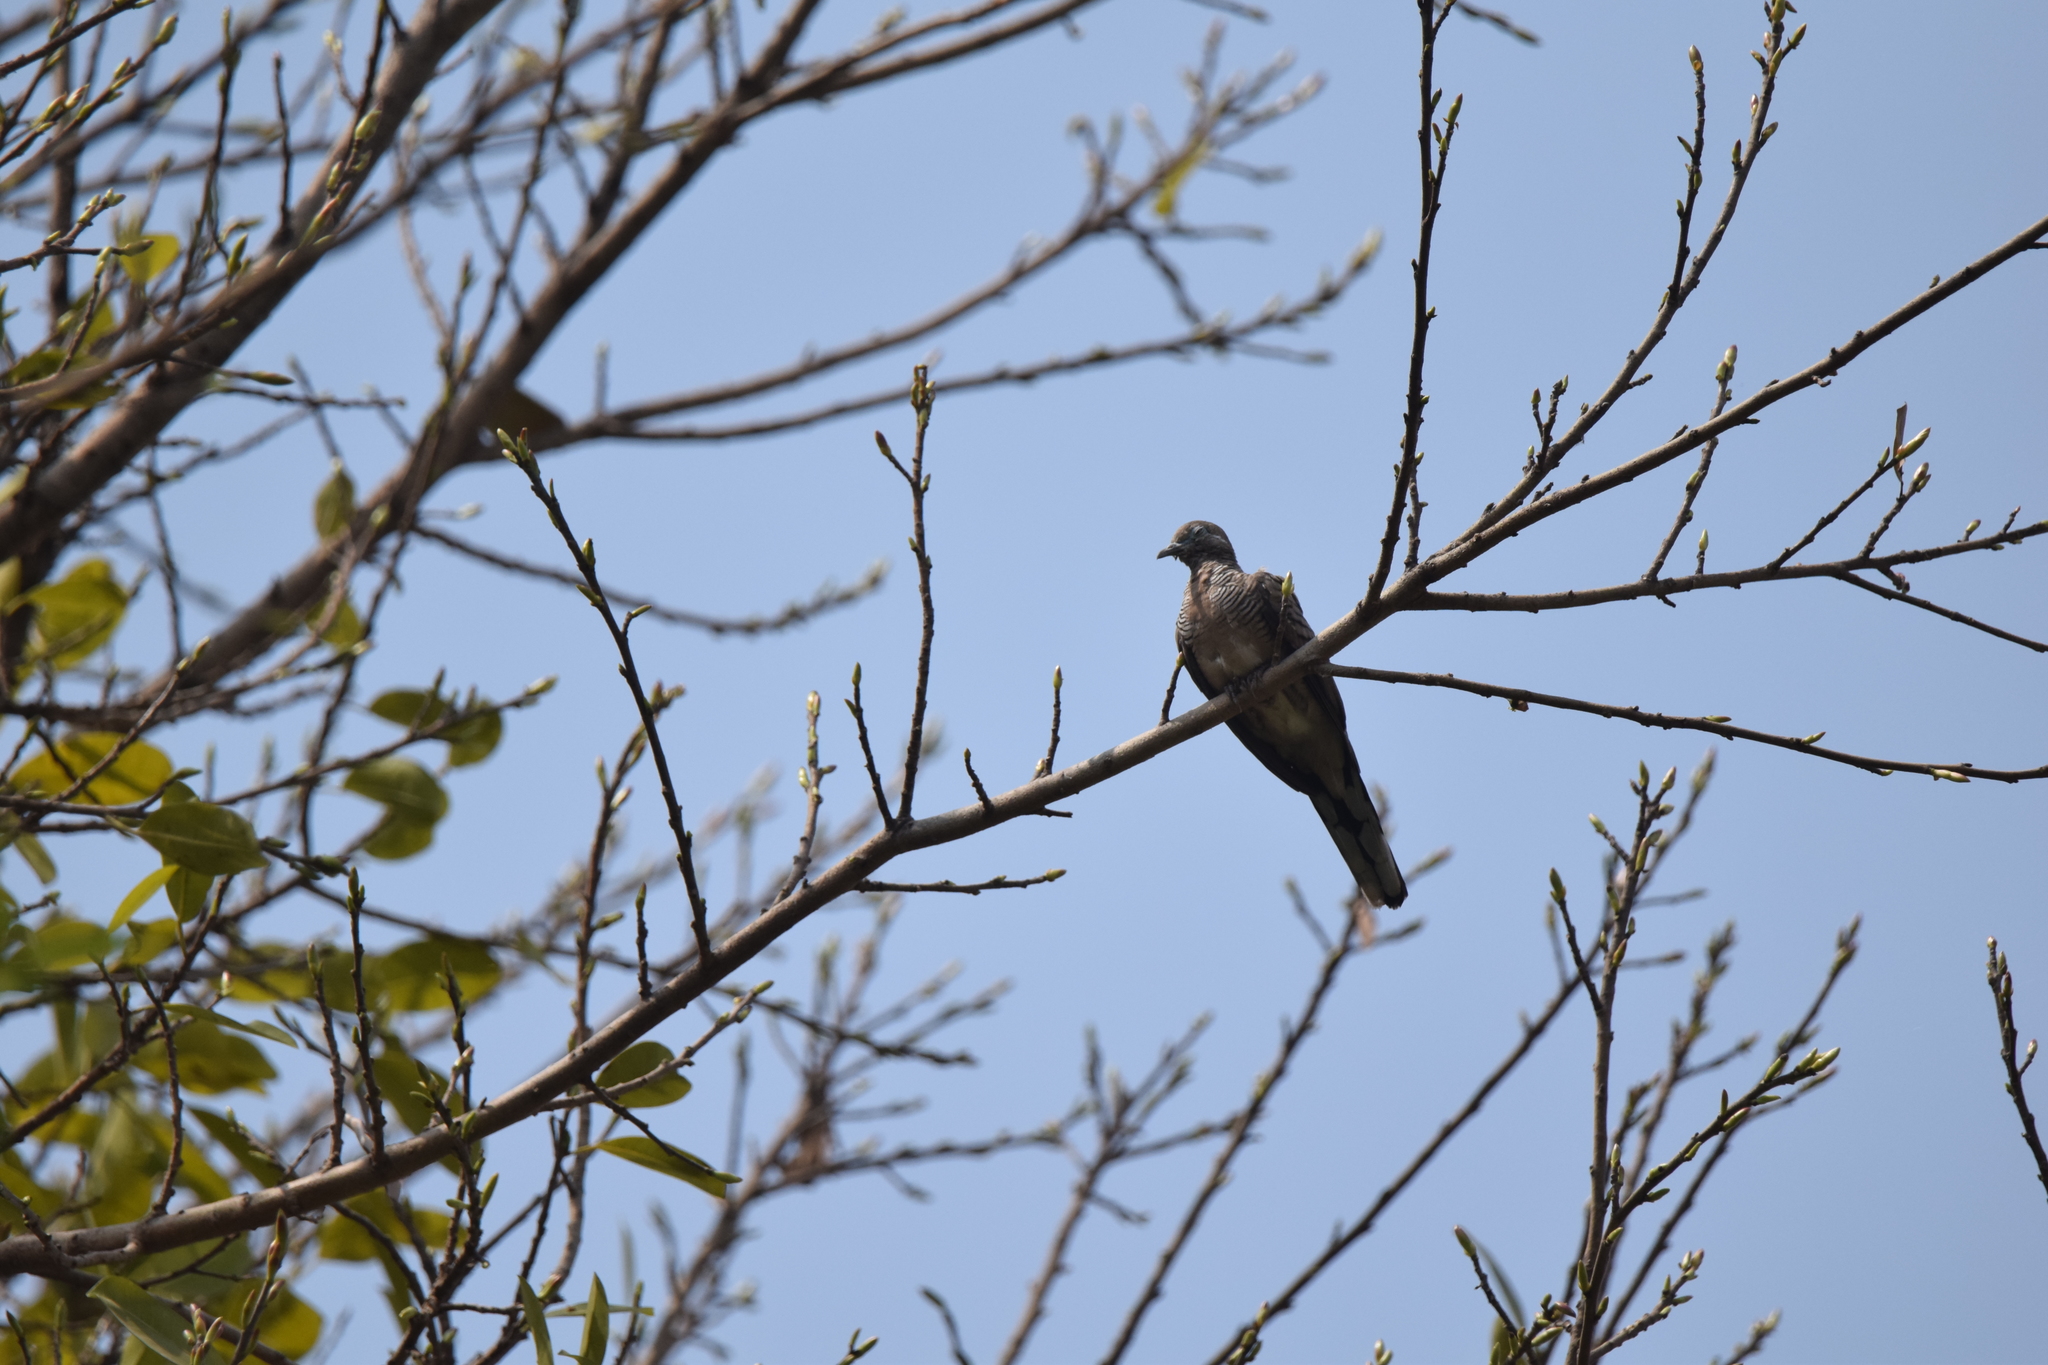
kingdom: Animalia
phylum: Chordata
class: Aves
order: Columbiformes
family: Columbidae
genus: Geopelia
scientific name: Geopelia striata
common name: Zebra dove
